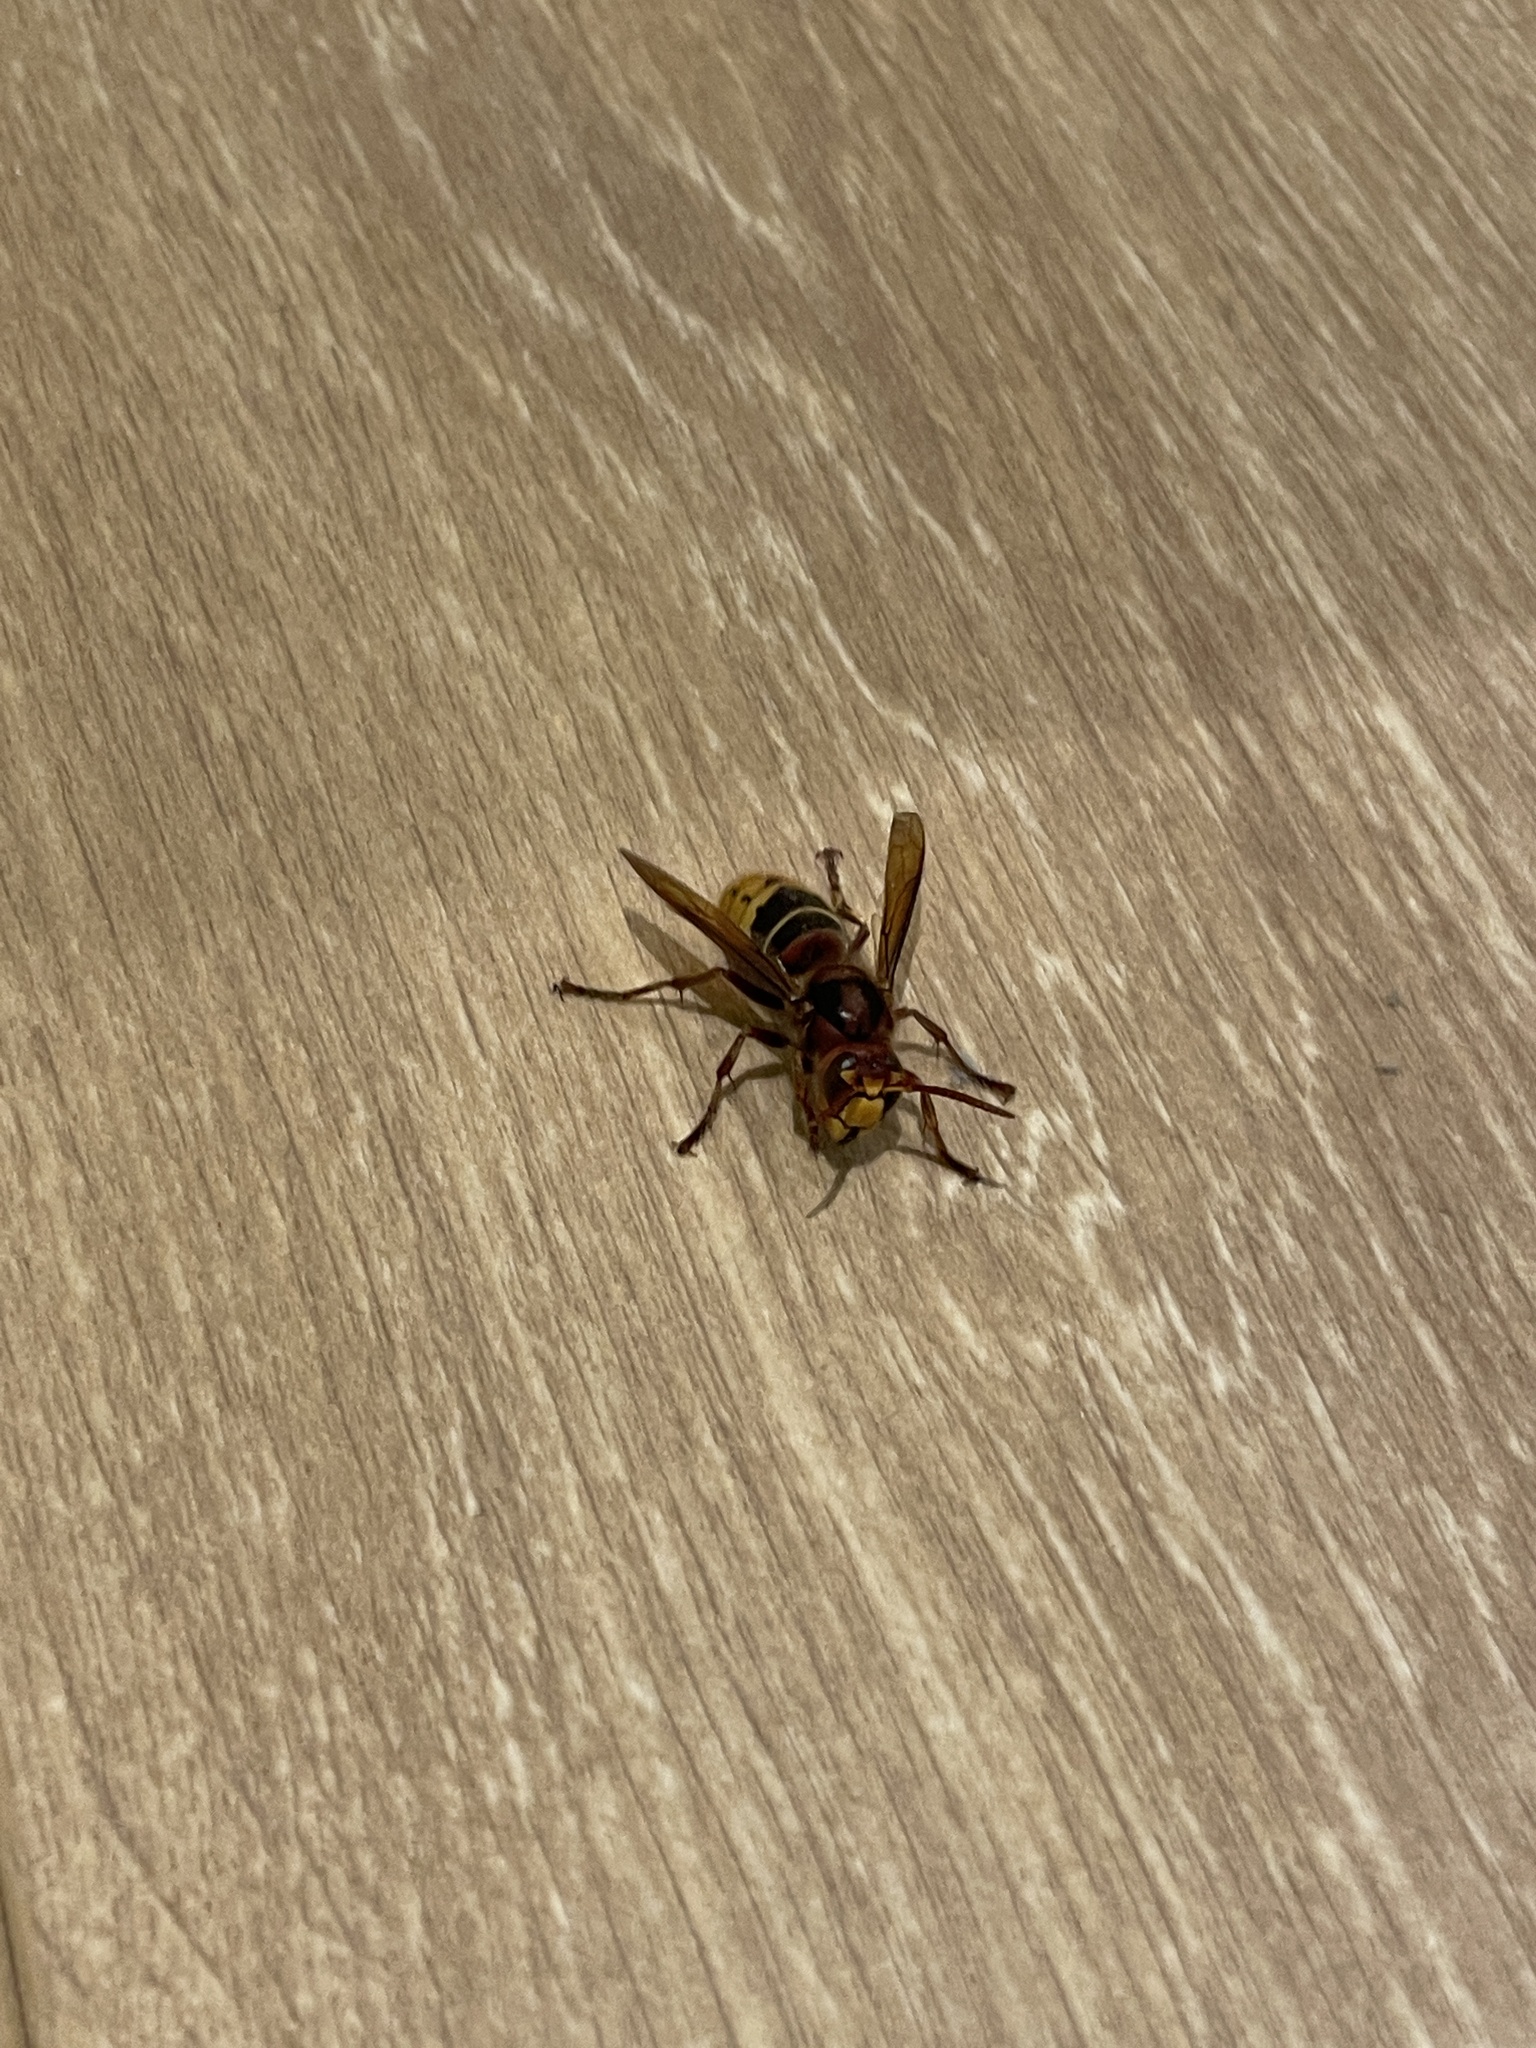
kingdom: Animalia
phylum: Arthropoda
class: Insecta
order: Hymenoptera
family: Vespidae
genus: Vespa
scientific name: Vespa crabro
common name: Hornet
